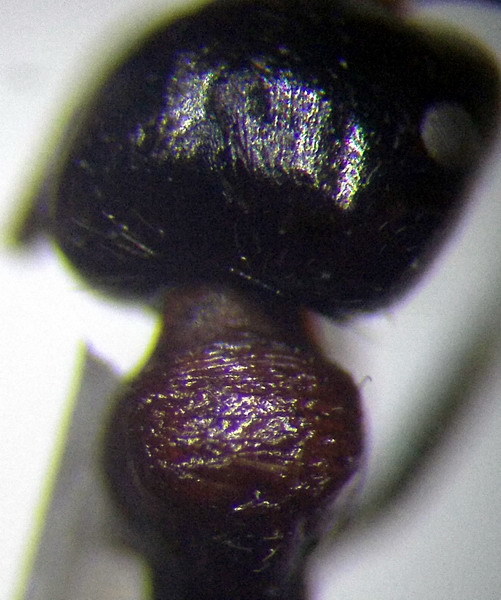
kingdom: Animalia
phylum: Arthropoda
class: Insecta
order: Hymenoptera
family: Formicidae
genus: Messor
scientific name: Messor denticulatus
